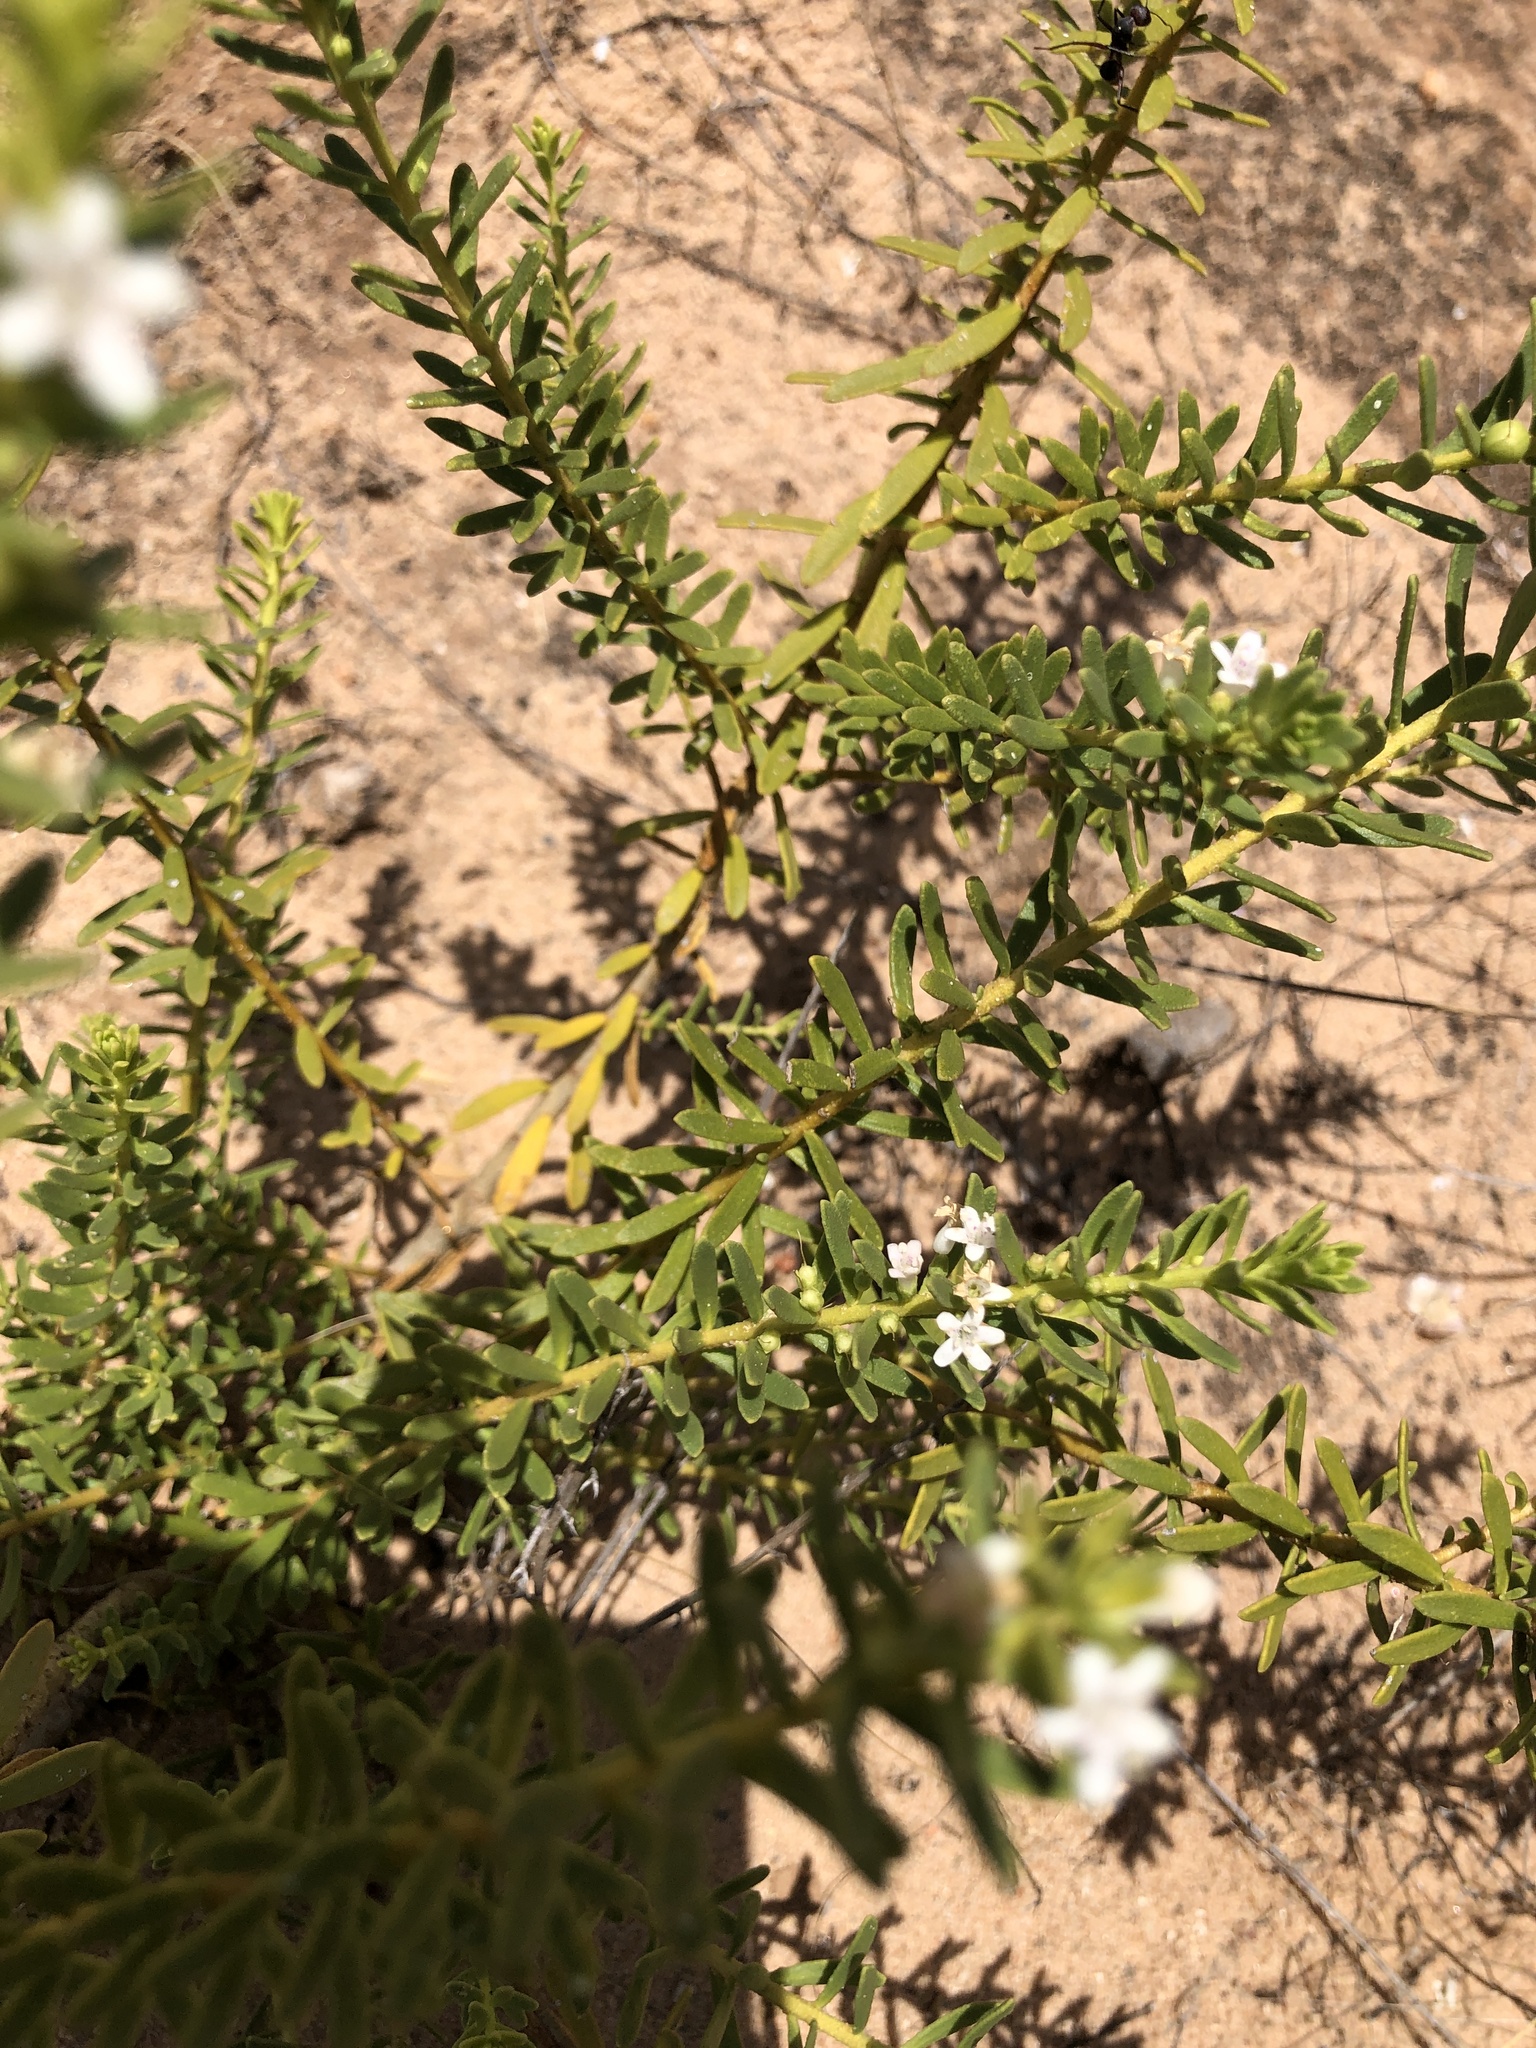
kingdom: Plantae
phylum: Tracheophyta
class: Magnoliopsida
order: Lamiales
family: Scrophulariaceae
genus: Myoporum
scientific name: Myoporum brevipes
